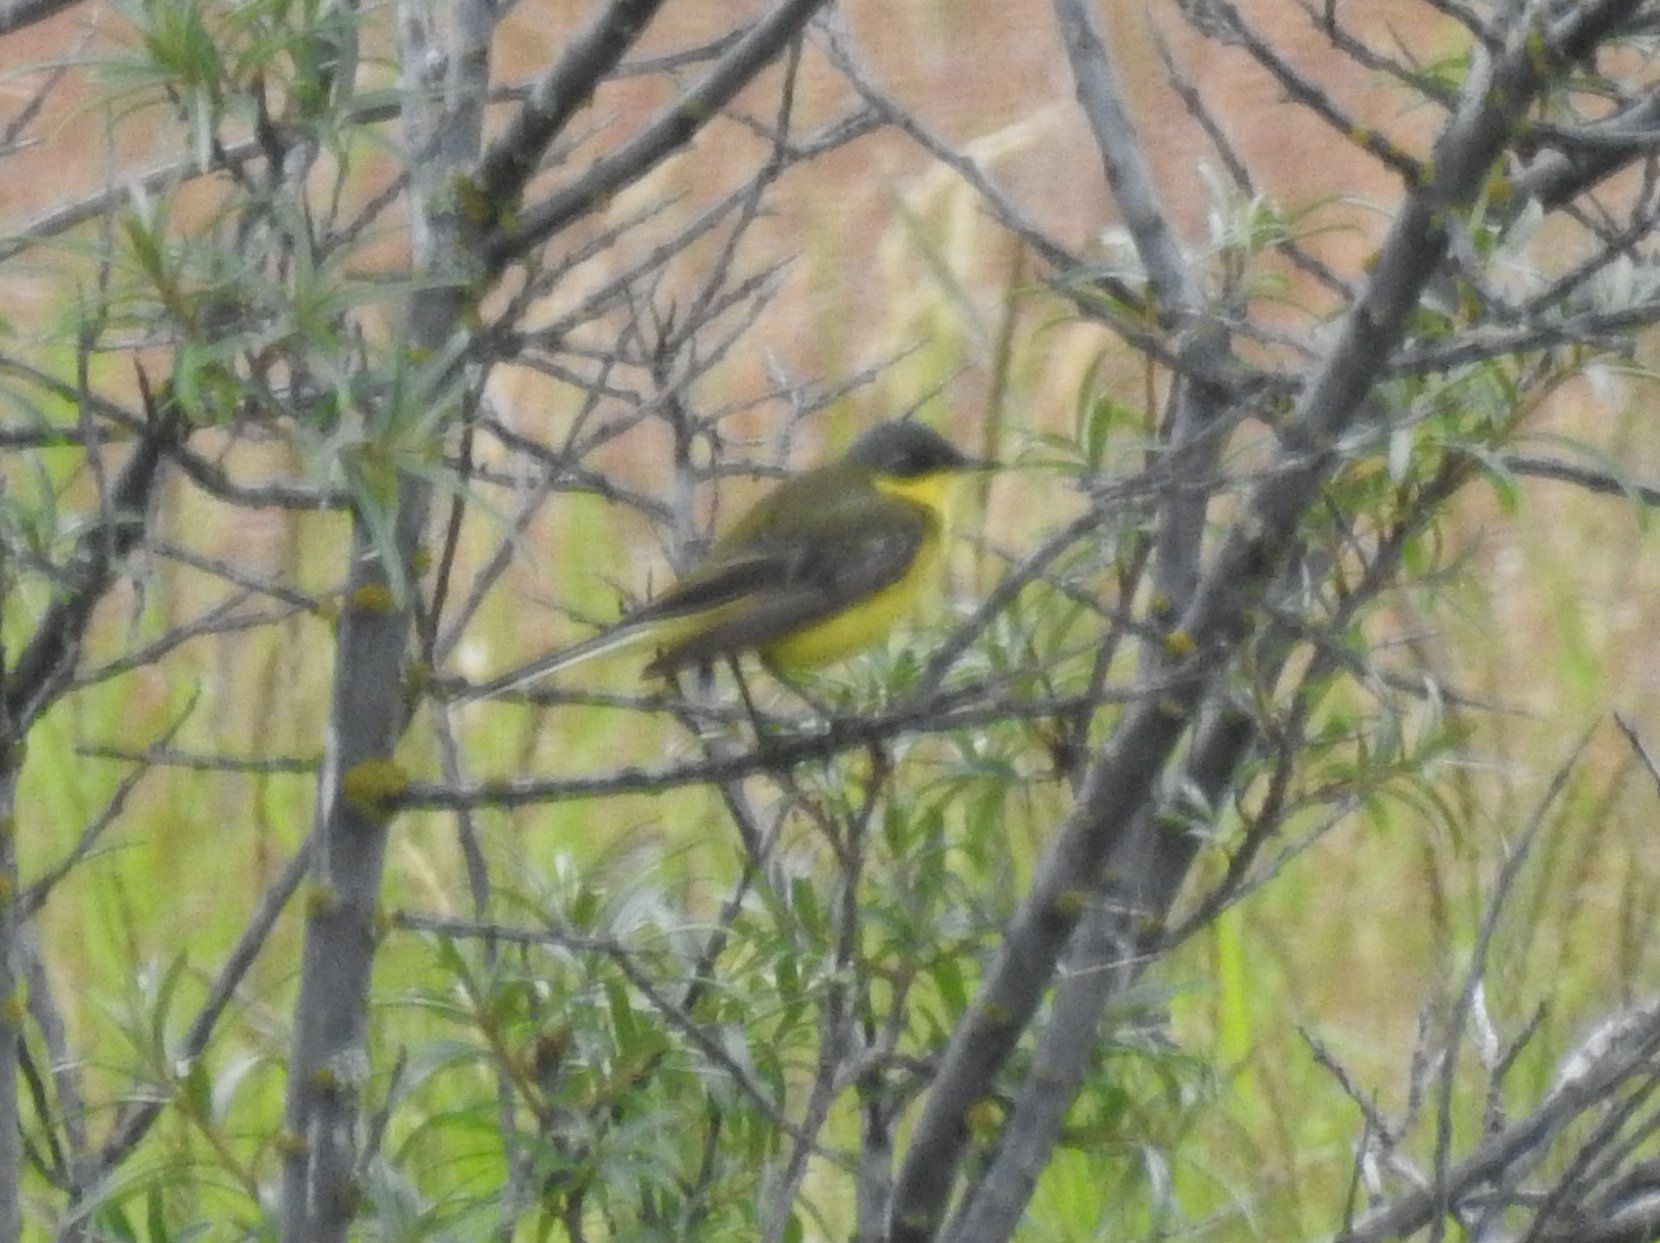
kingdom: Animalia
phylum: Chordata
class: Aves
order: Passeriformes
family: Motacillidae
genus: Motacilla
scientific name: Motacilla flava
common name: Western yellow wagtail
